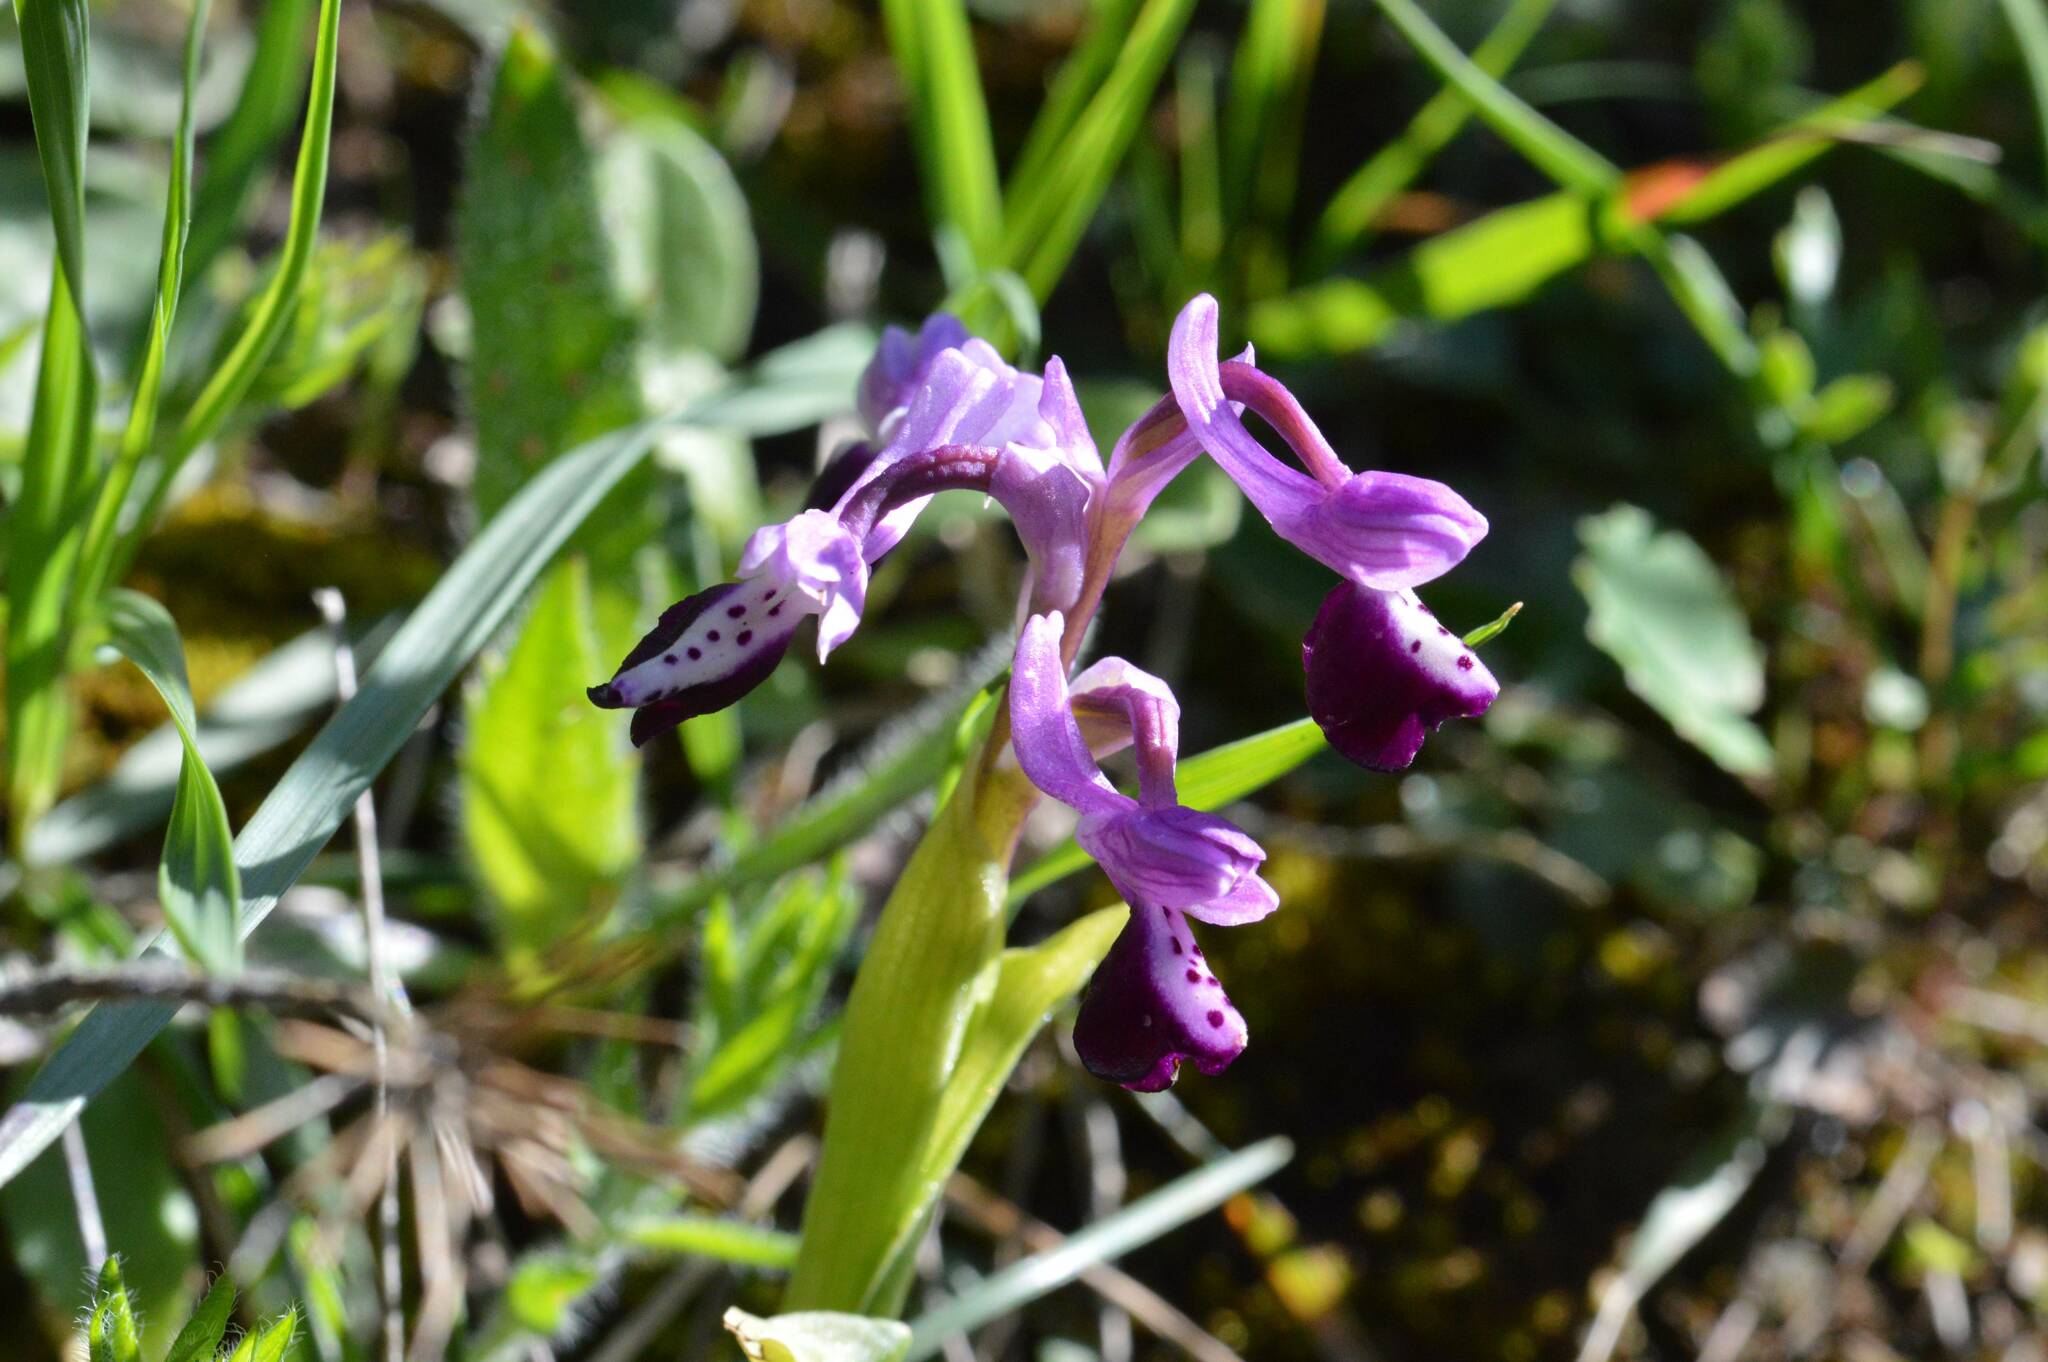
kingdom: Plantae
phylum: Tracheophyta
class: Liliopsida
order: Asparagales
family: Orchidaceae
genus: Anacamptis
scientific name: Anacamptis morio
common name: Green-winged orchid
